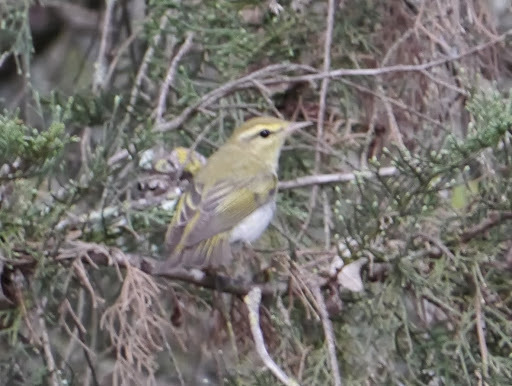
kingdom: Animalia
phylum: Chordata
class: Aves
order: Passeriformes
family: Phylloscopidae
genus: Phylloscopus
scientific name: Phylloscopus sibillatrix
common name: Wood warbler
